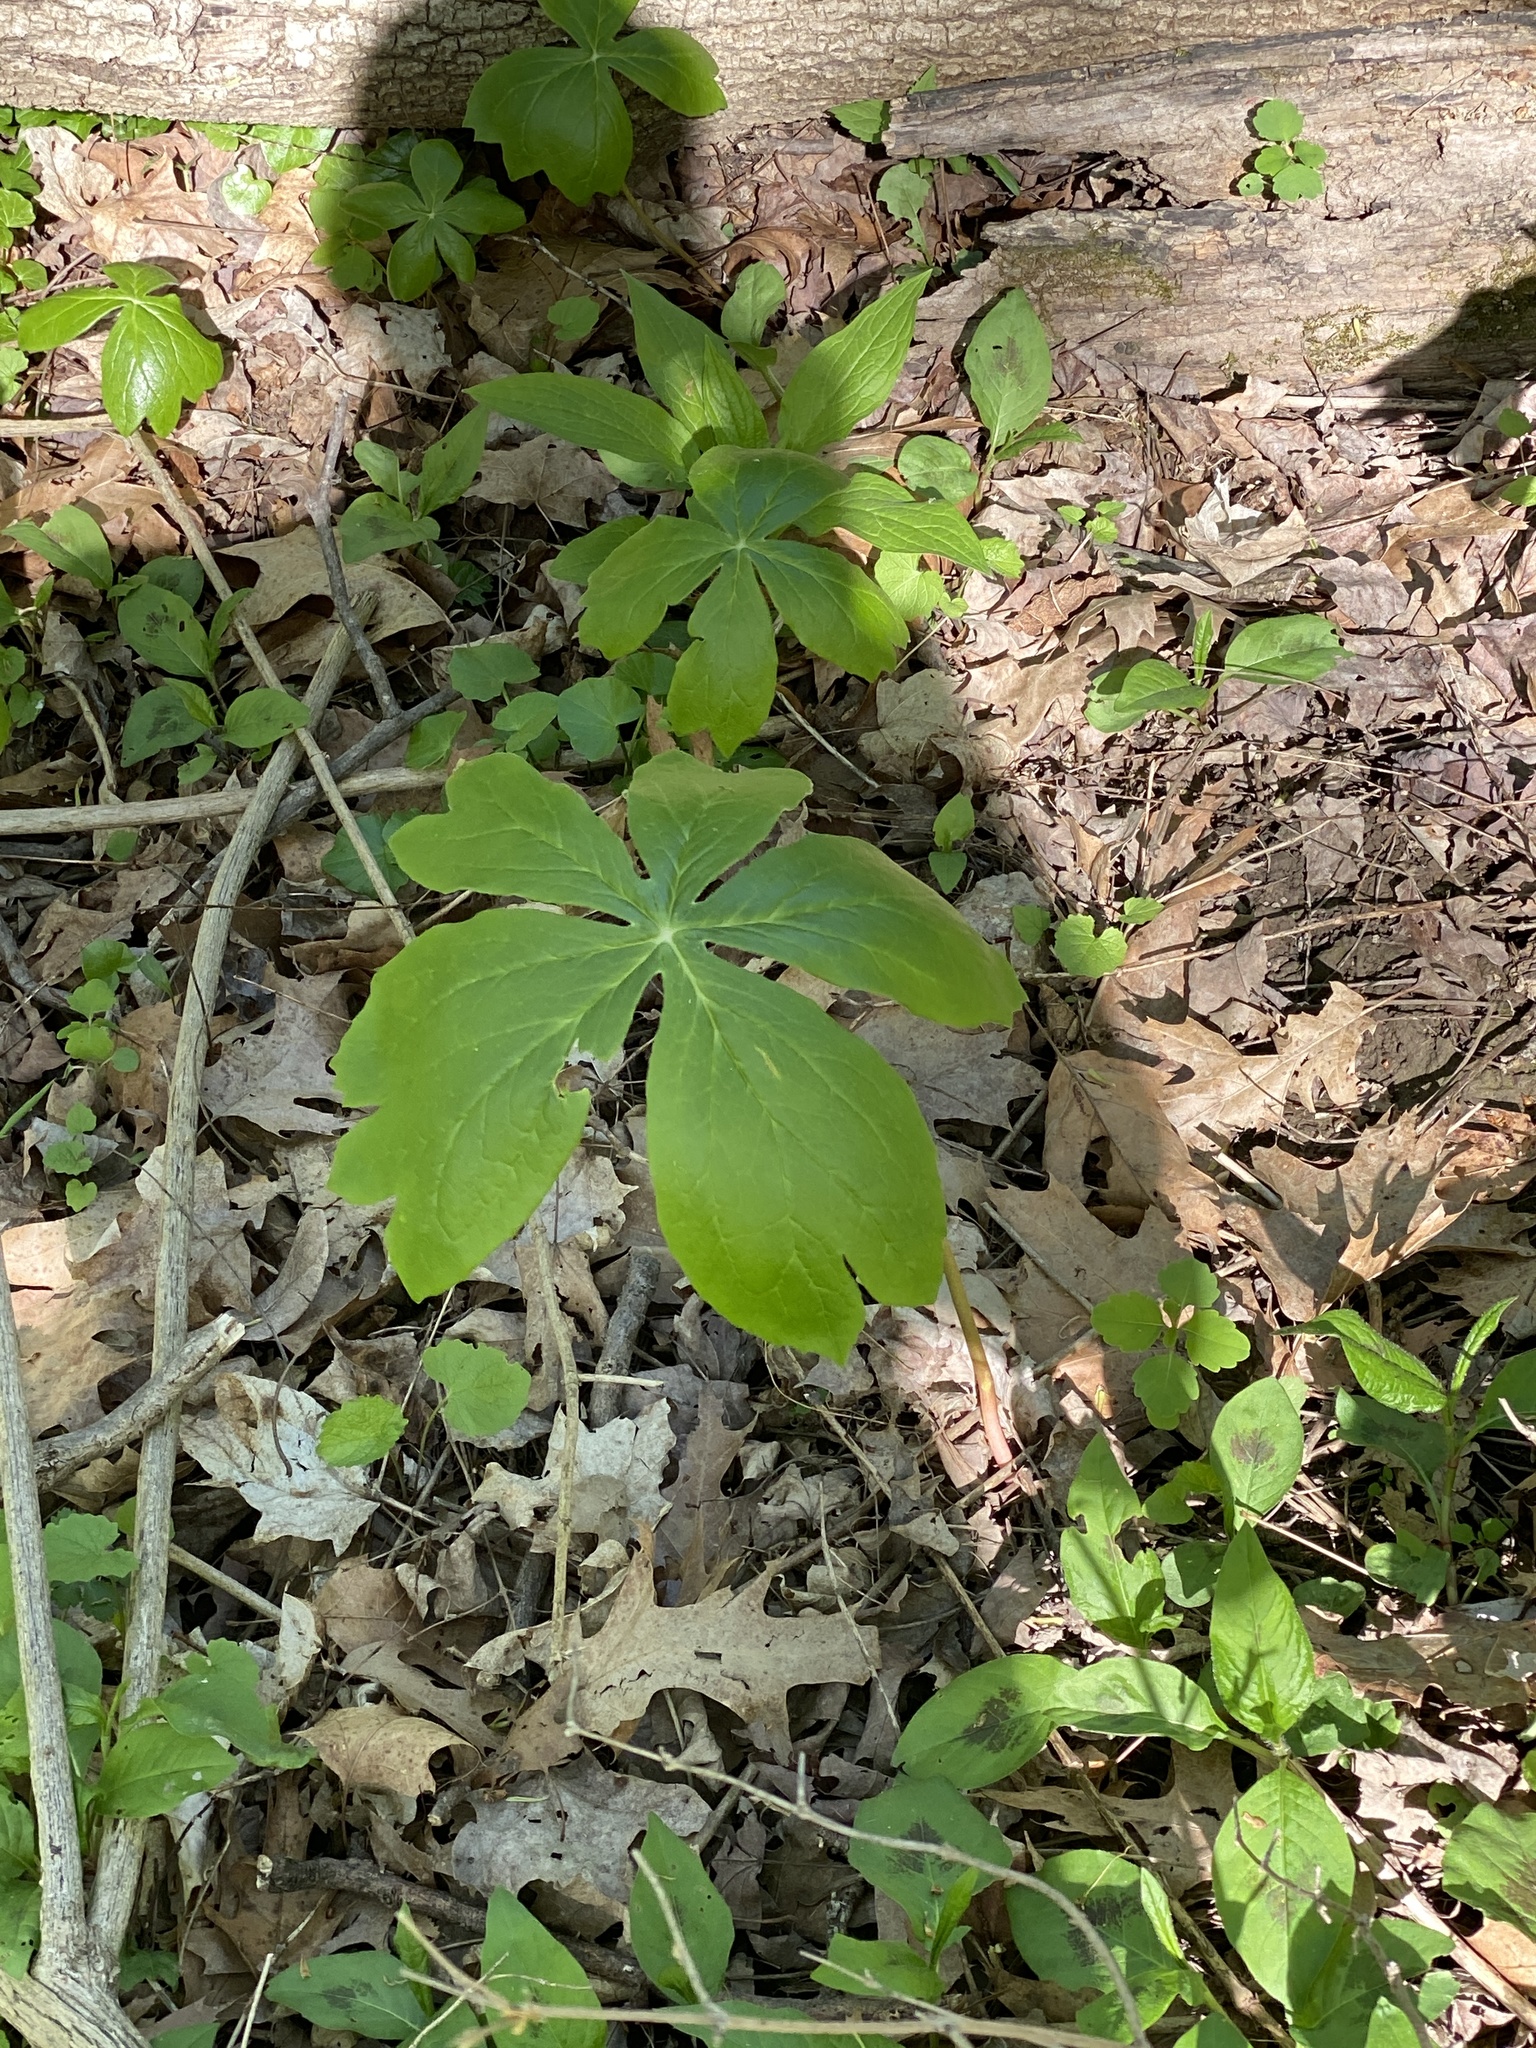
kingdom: Plantae
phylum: Tracheophyta
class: Magnoliopsida
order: Ranunculales
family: Berberidaceae
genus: Podophyllum
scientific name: Podophyllum peltatum
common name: Wild mandrake
